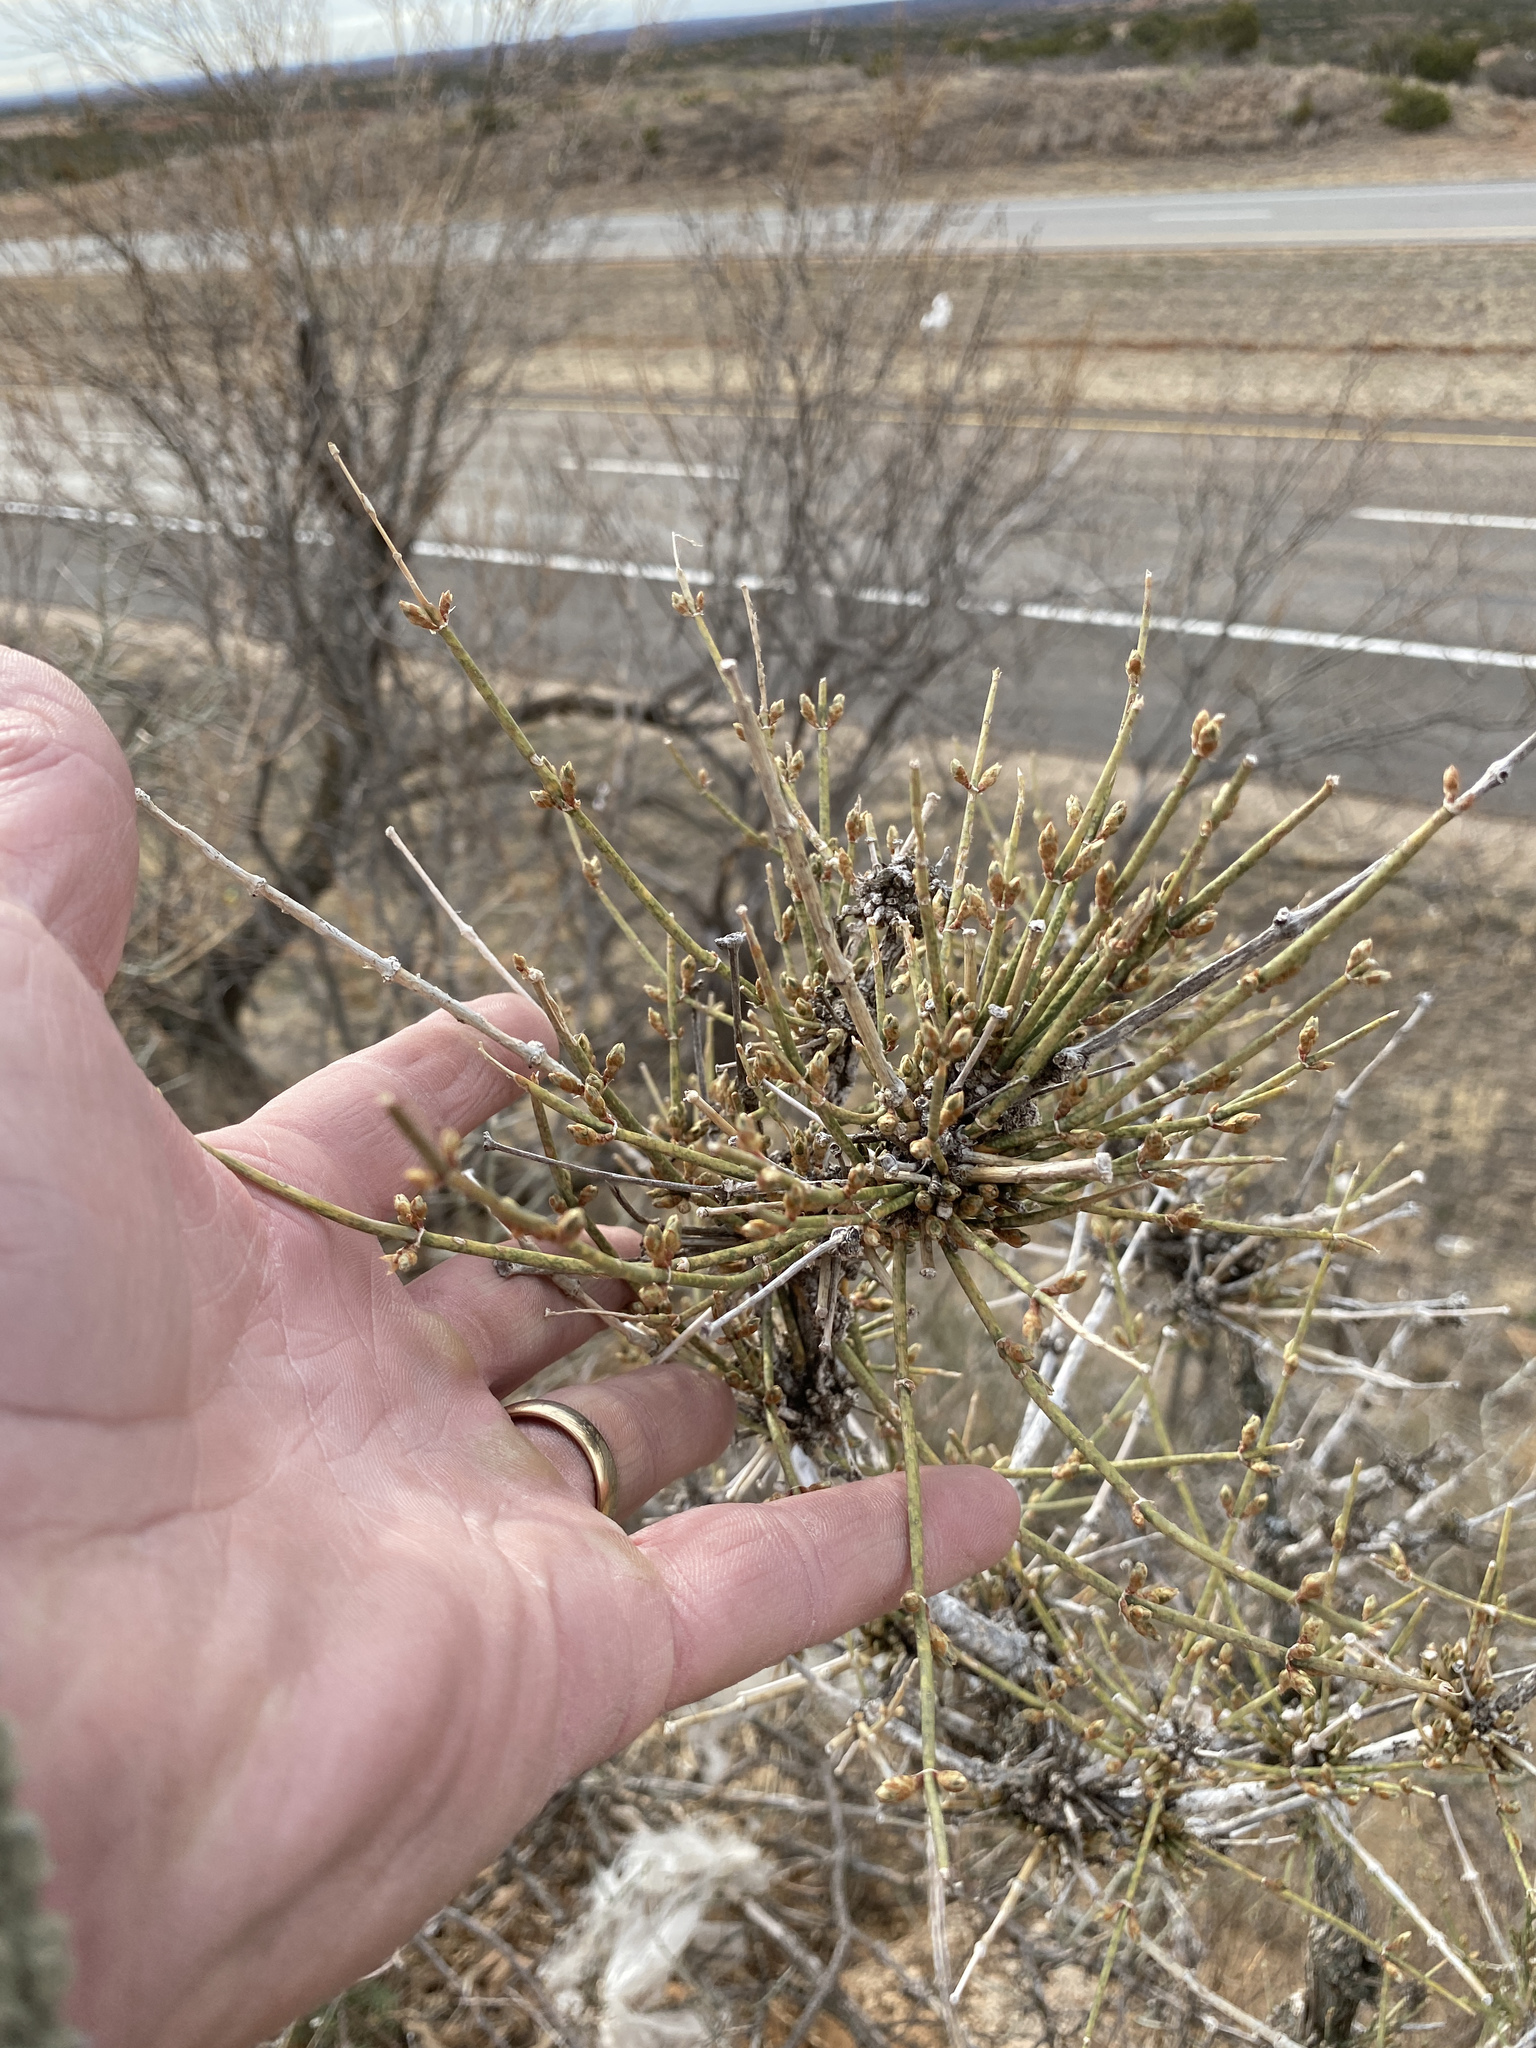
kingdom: Plantae
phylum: Tracheophyta
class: Gnetopsida
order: Ephedrales
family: Ephedraceae
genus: Ephedra
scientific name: Ephedra antisyphilitica
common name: Clipweed
